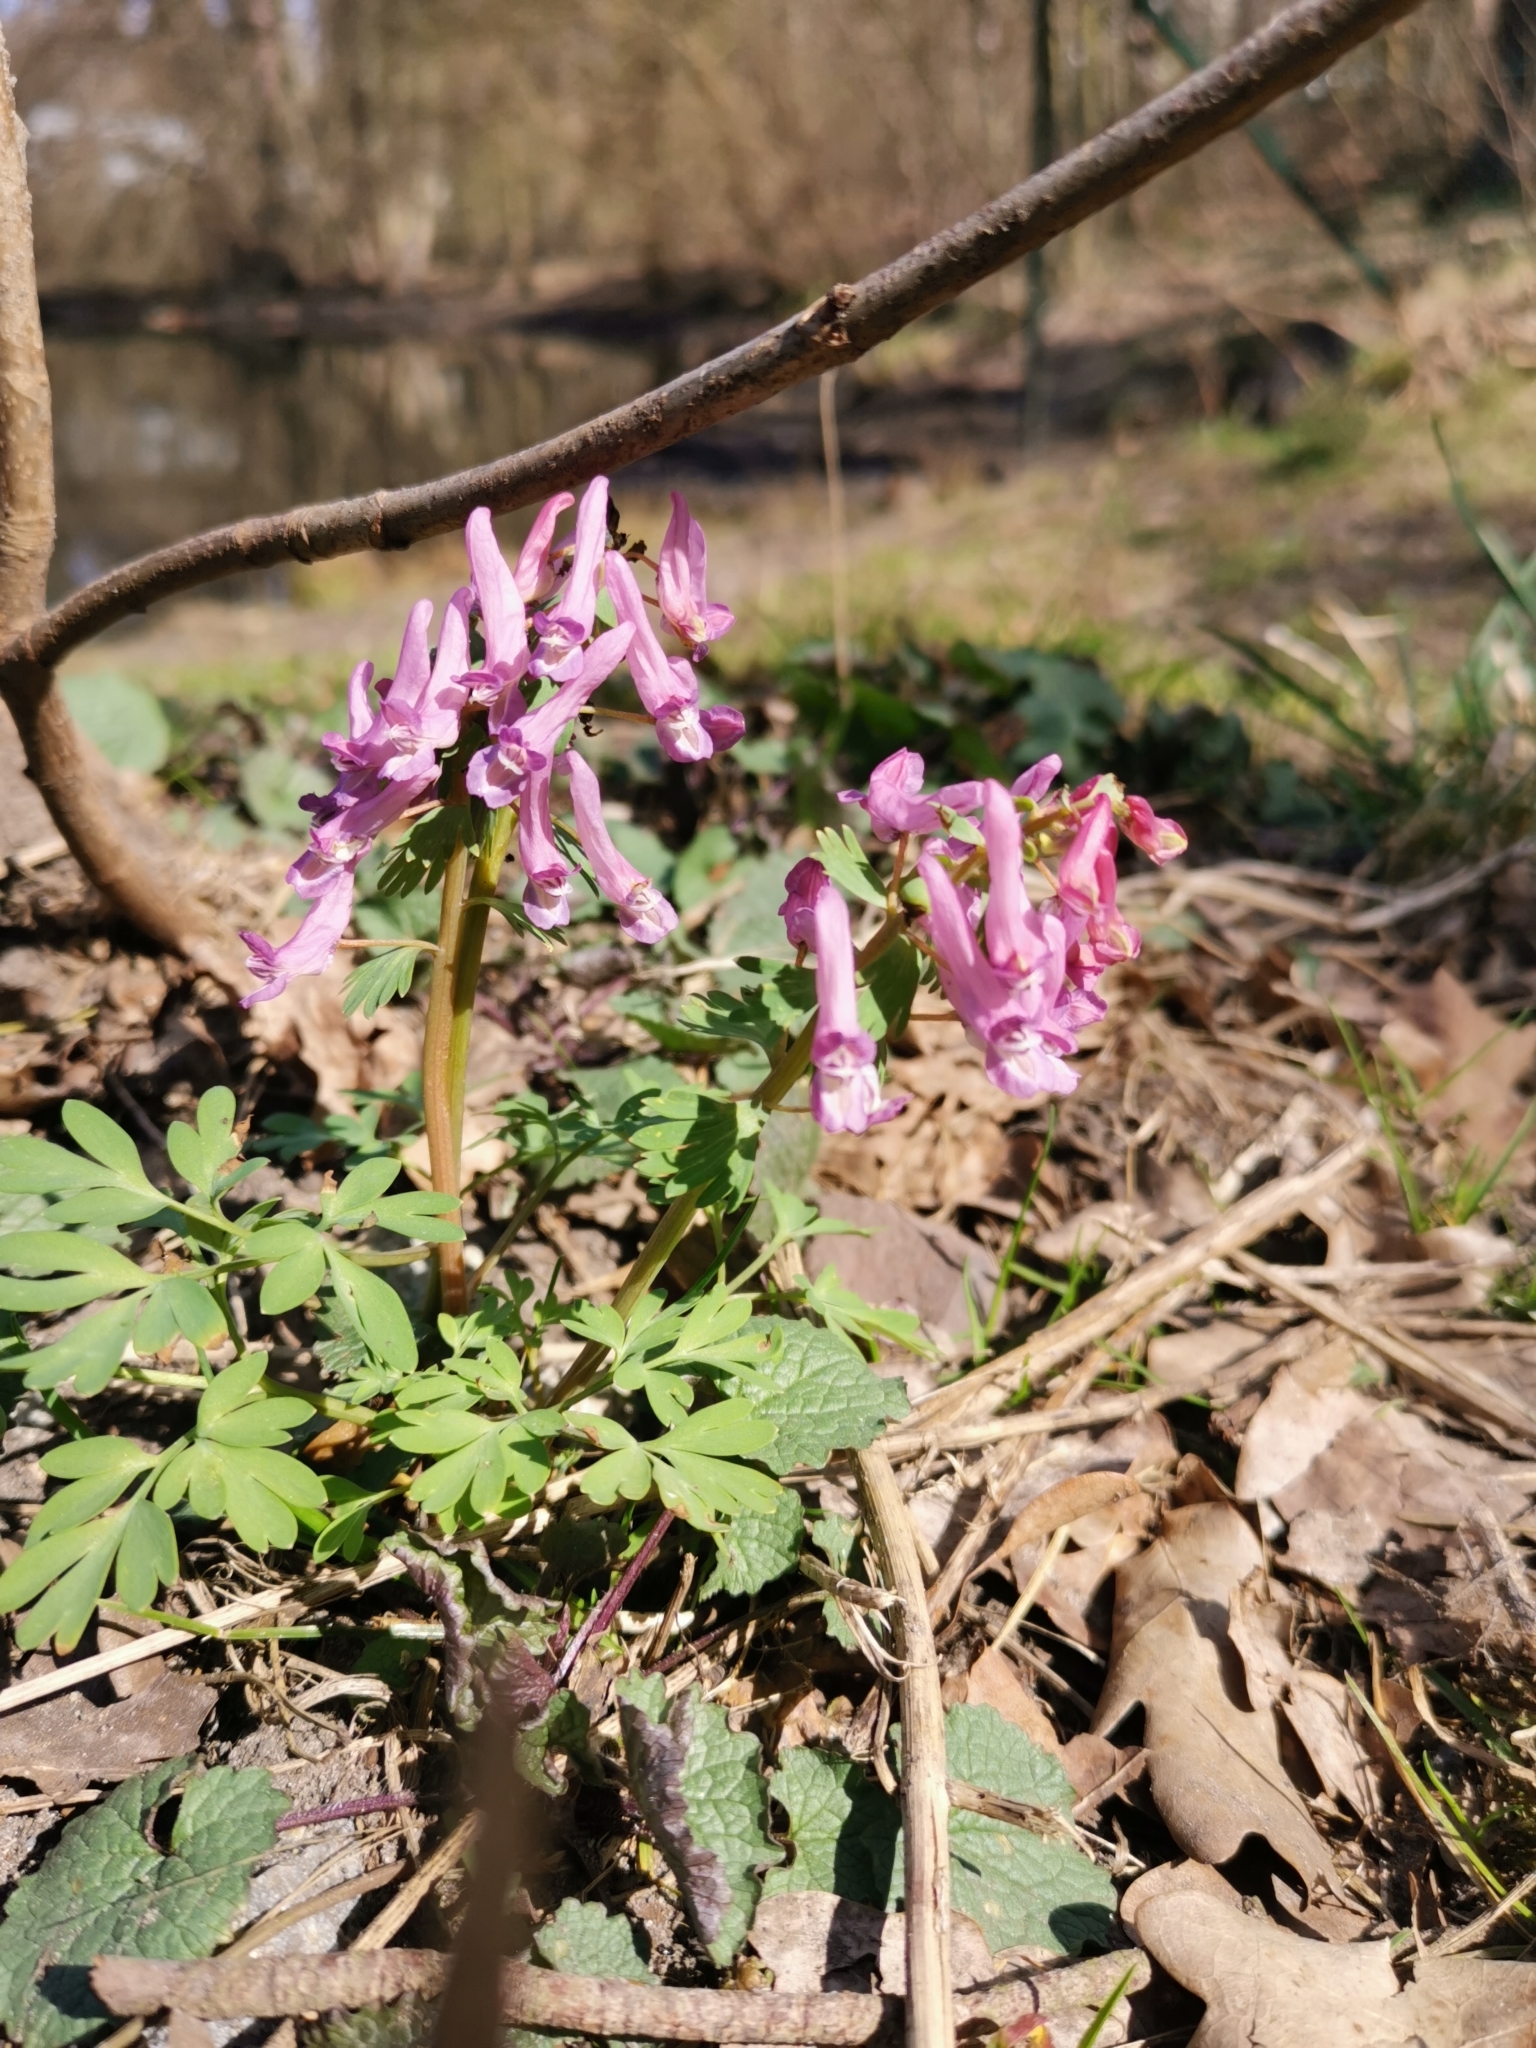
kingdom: Plantae
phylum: Tracheophyta
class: Magnoliopsida
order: Ranunculales
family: Papaveraceae
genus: Corydalis
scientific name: Corydalis solida
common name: Bird-in-a-bush
